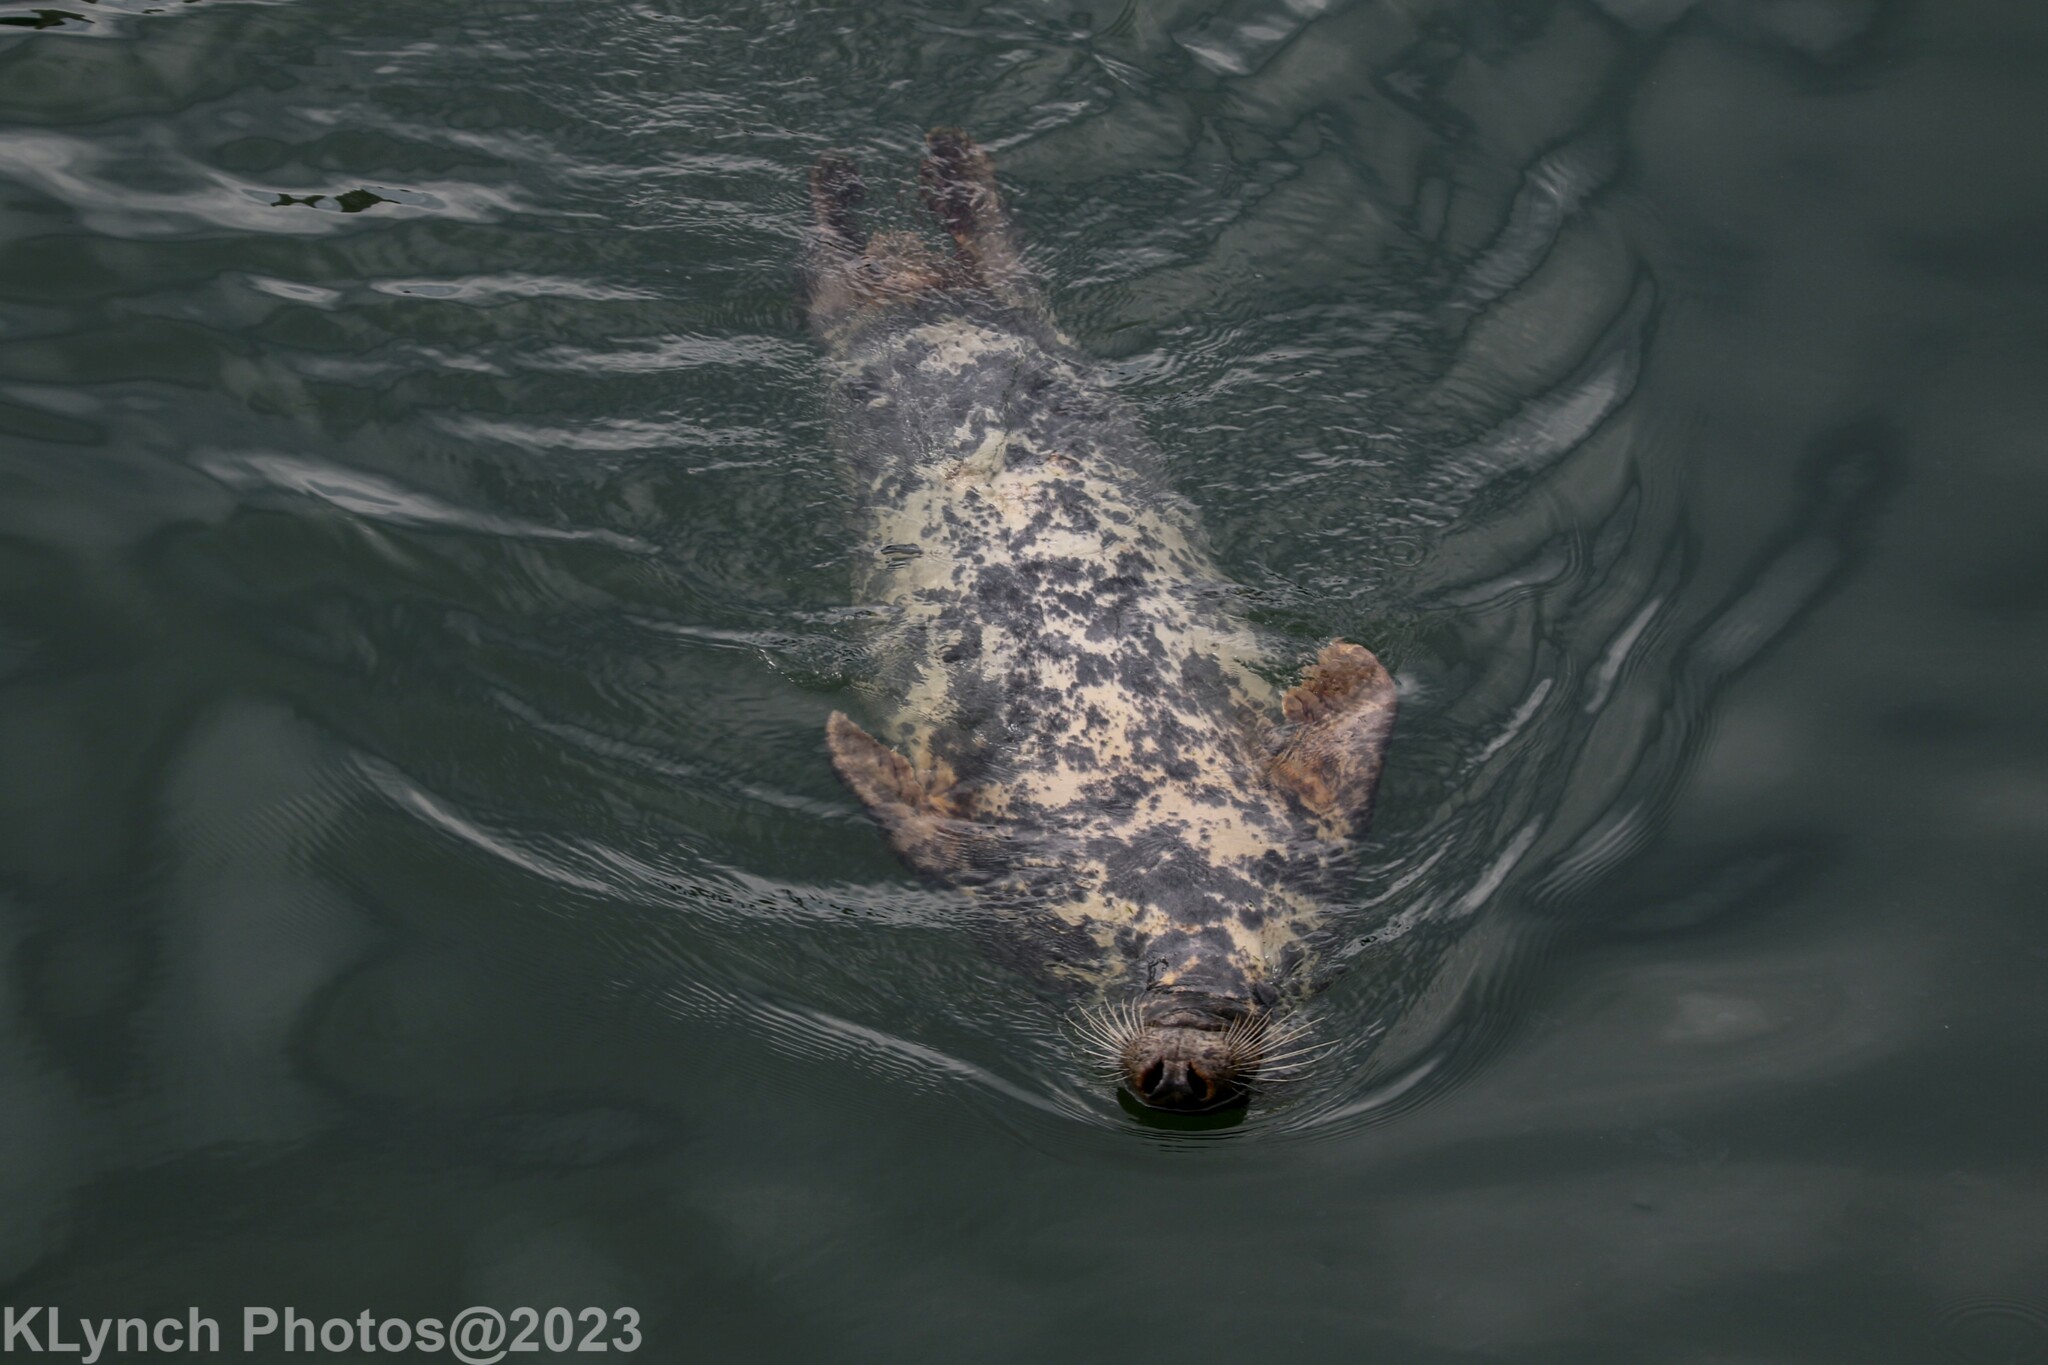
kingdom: Animalia
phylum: Chordata
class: Mammalia
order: Carnivora
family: Phocidae
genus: Halichoerus
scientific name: Halichoerus grypus
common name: Grey seal
